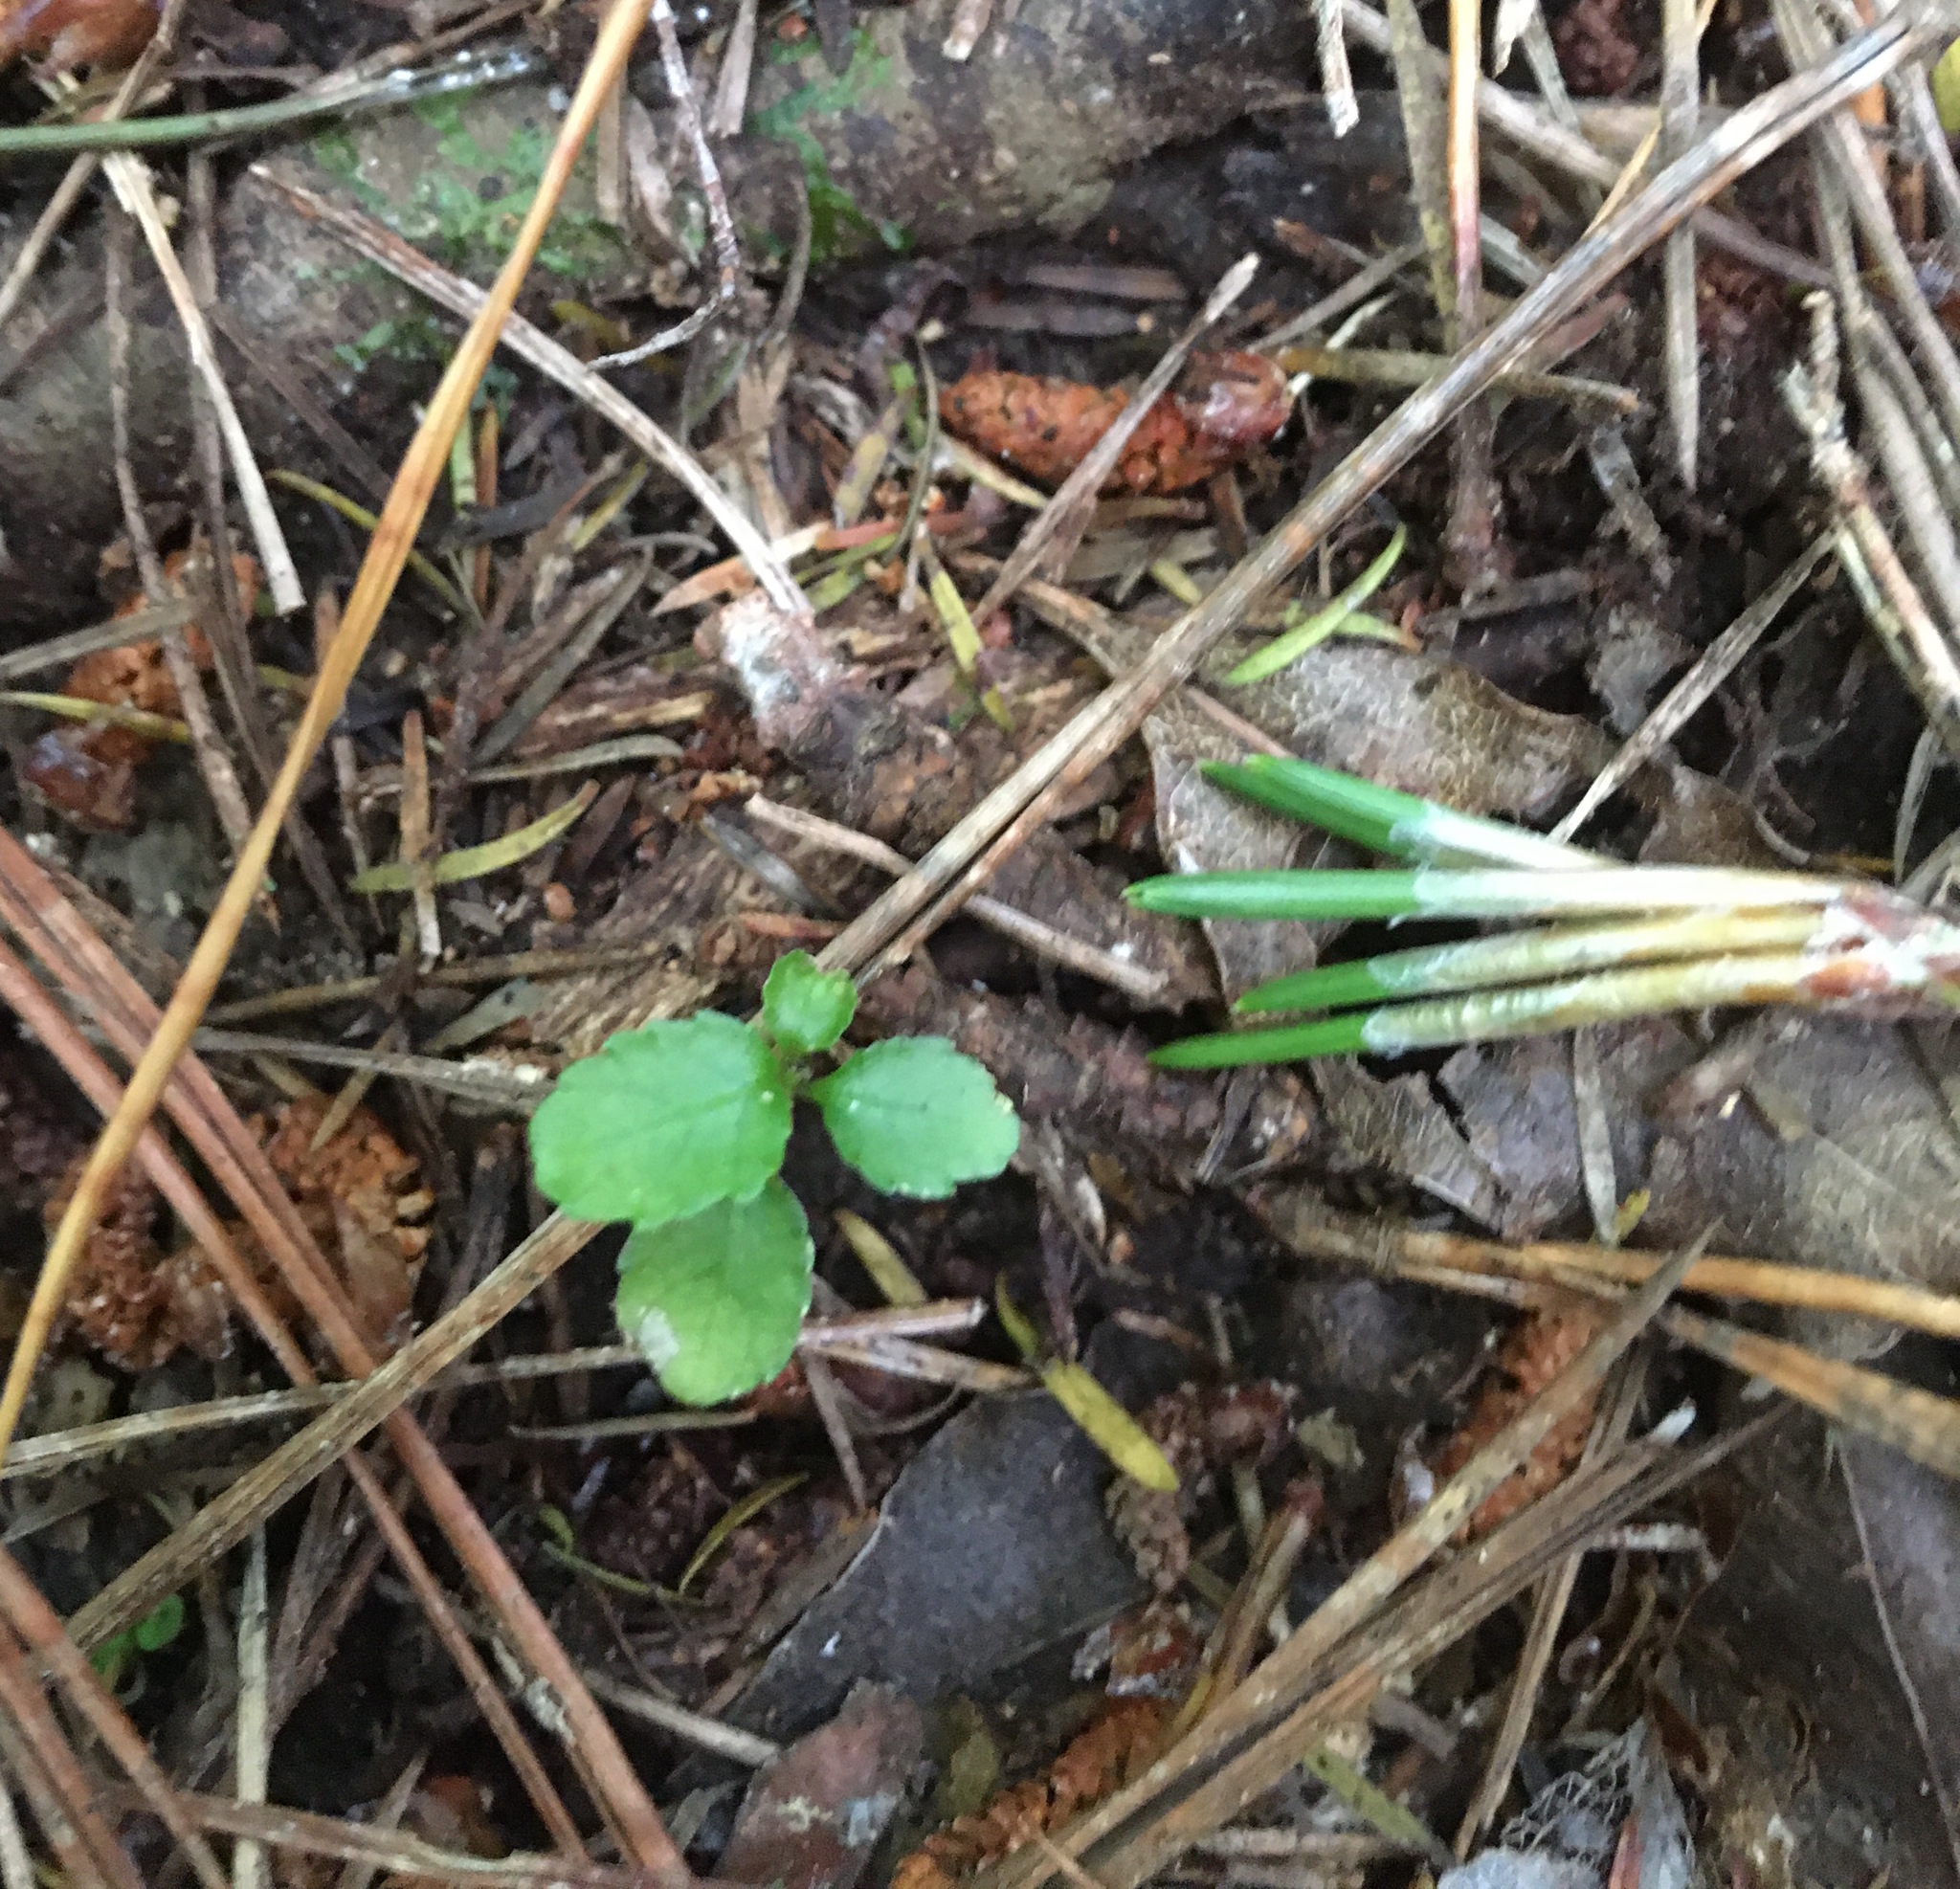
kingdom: Plantae
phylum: Tracheophyta
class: Magnoliopsida
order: Malpighiales
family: Violaceae
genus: Melicytus
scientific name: Melicytus ramiflorus
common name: Mahoe
